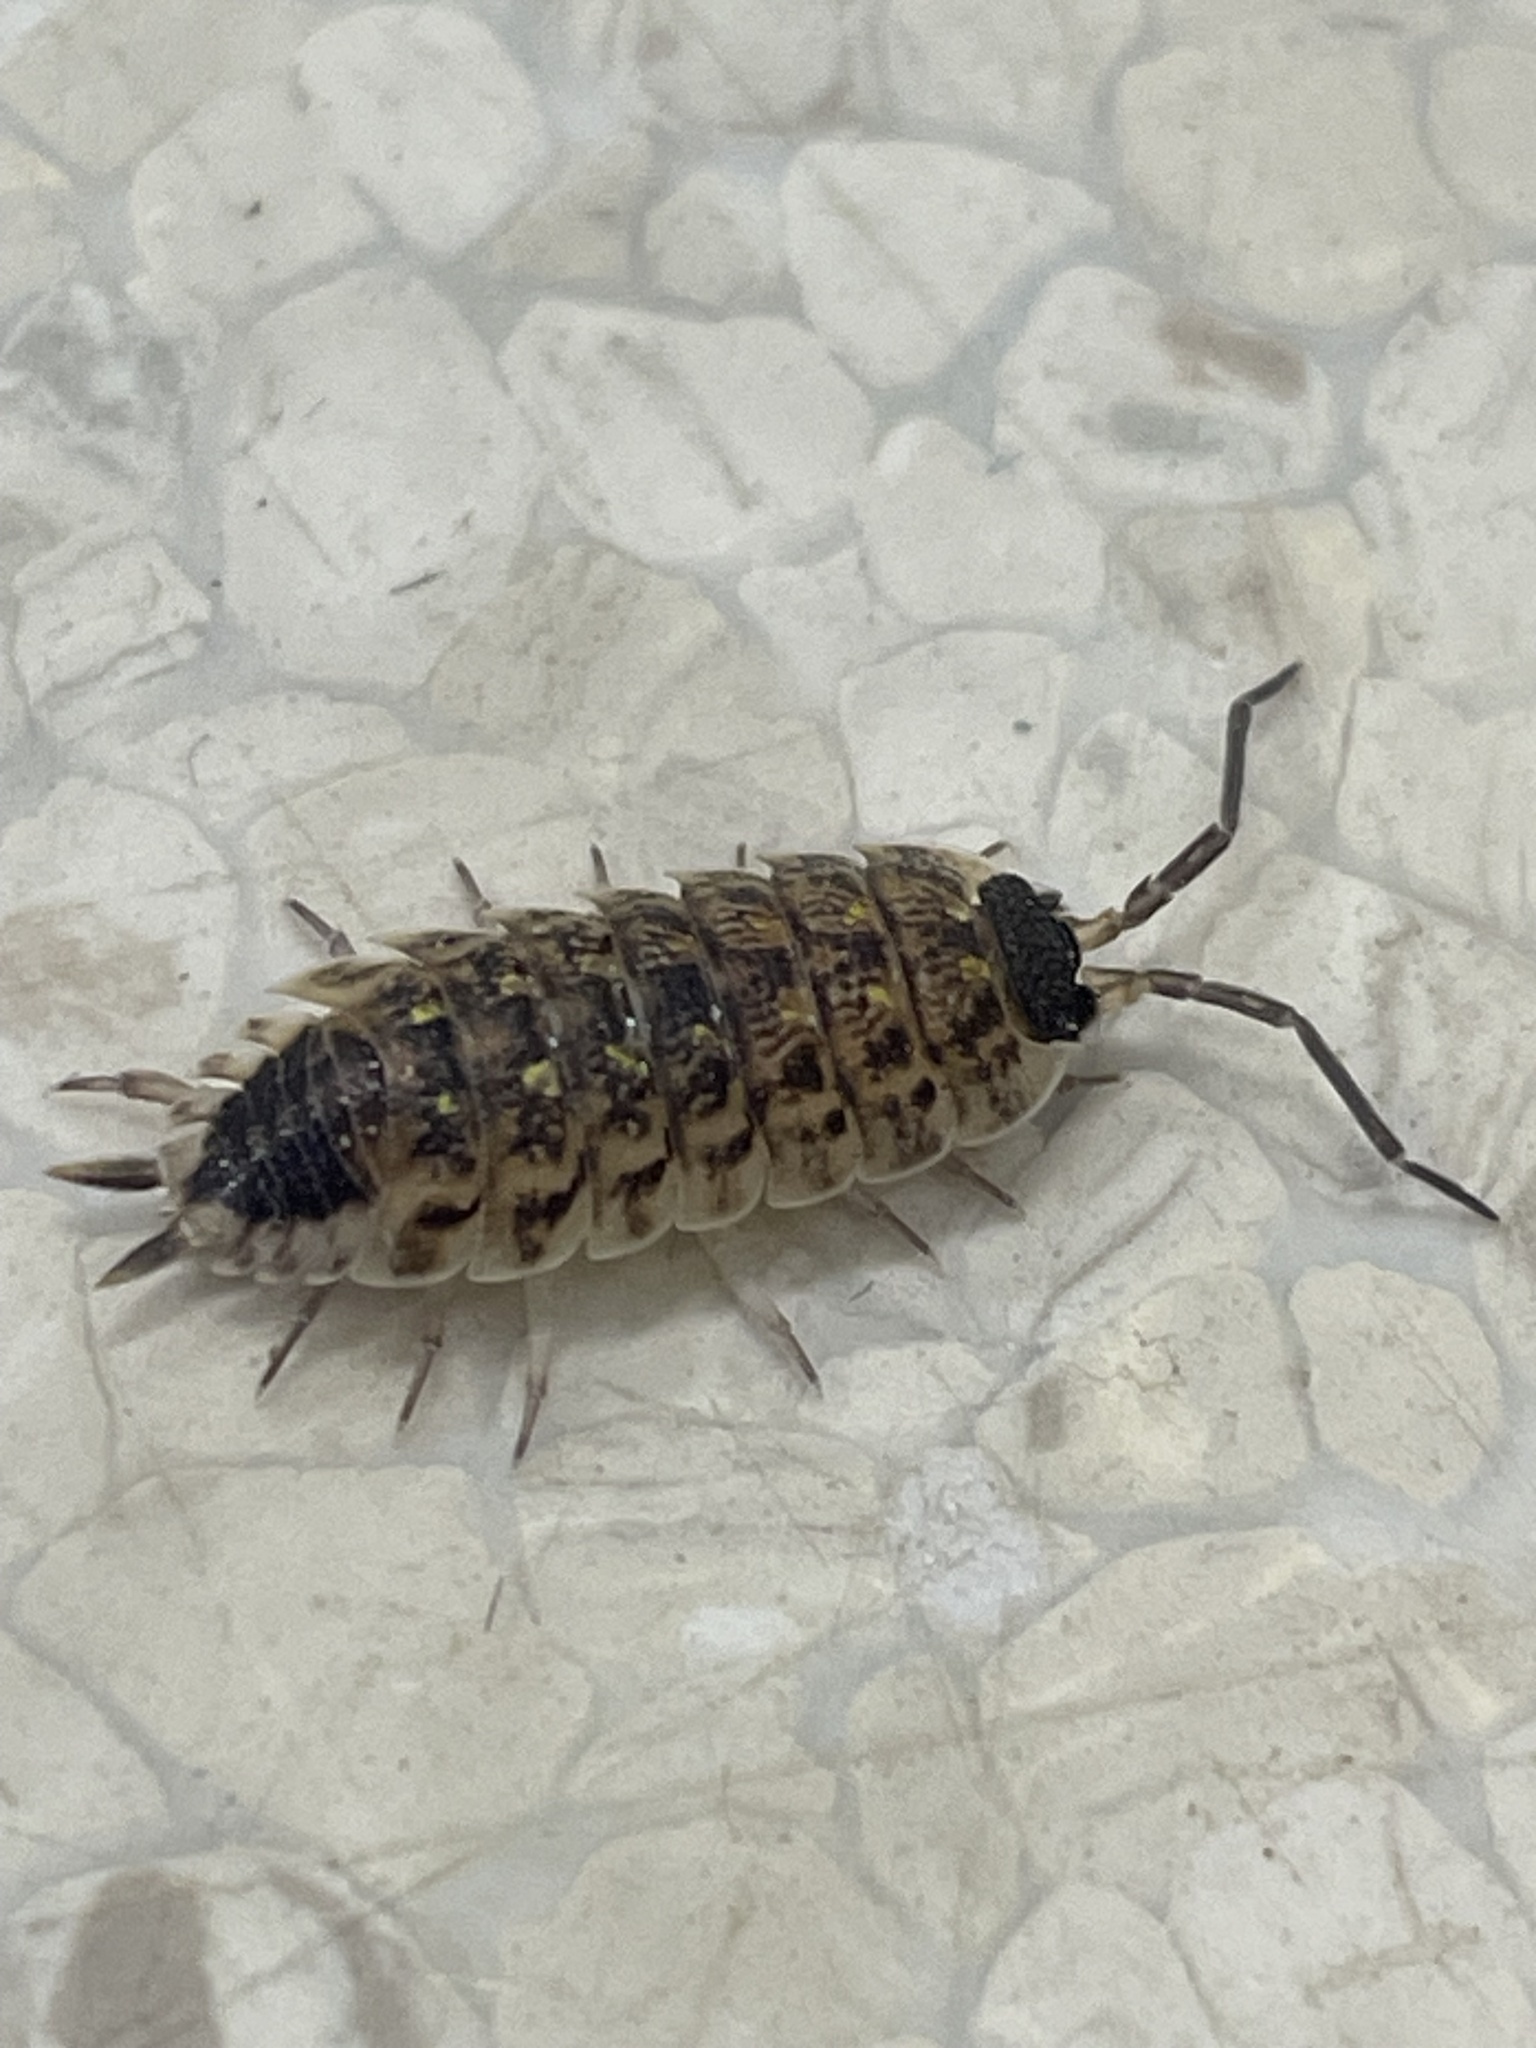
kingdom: Animalia
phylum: Arthropoda
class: Malacostraca
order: Isopoda
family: Porcellionidae
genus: Porcellio
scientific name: Porcellio spinicornis
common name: Painted woodlouse
